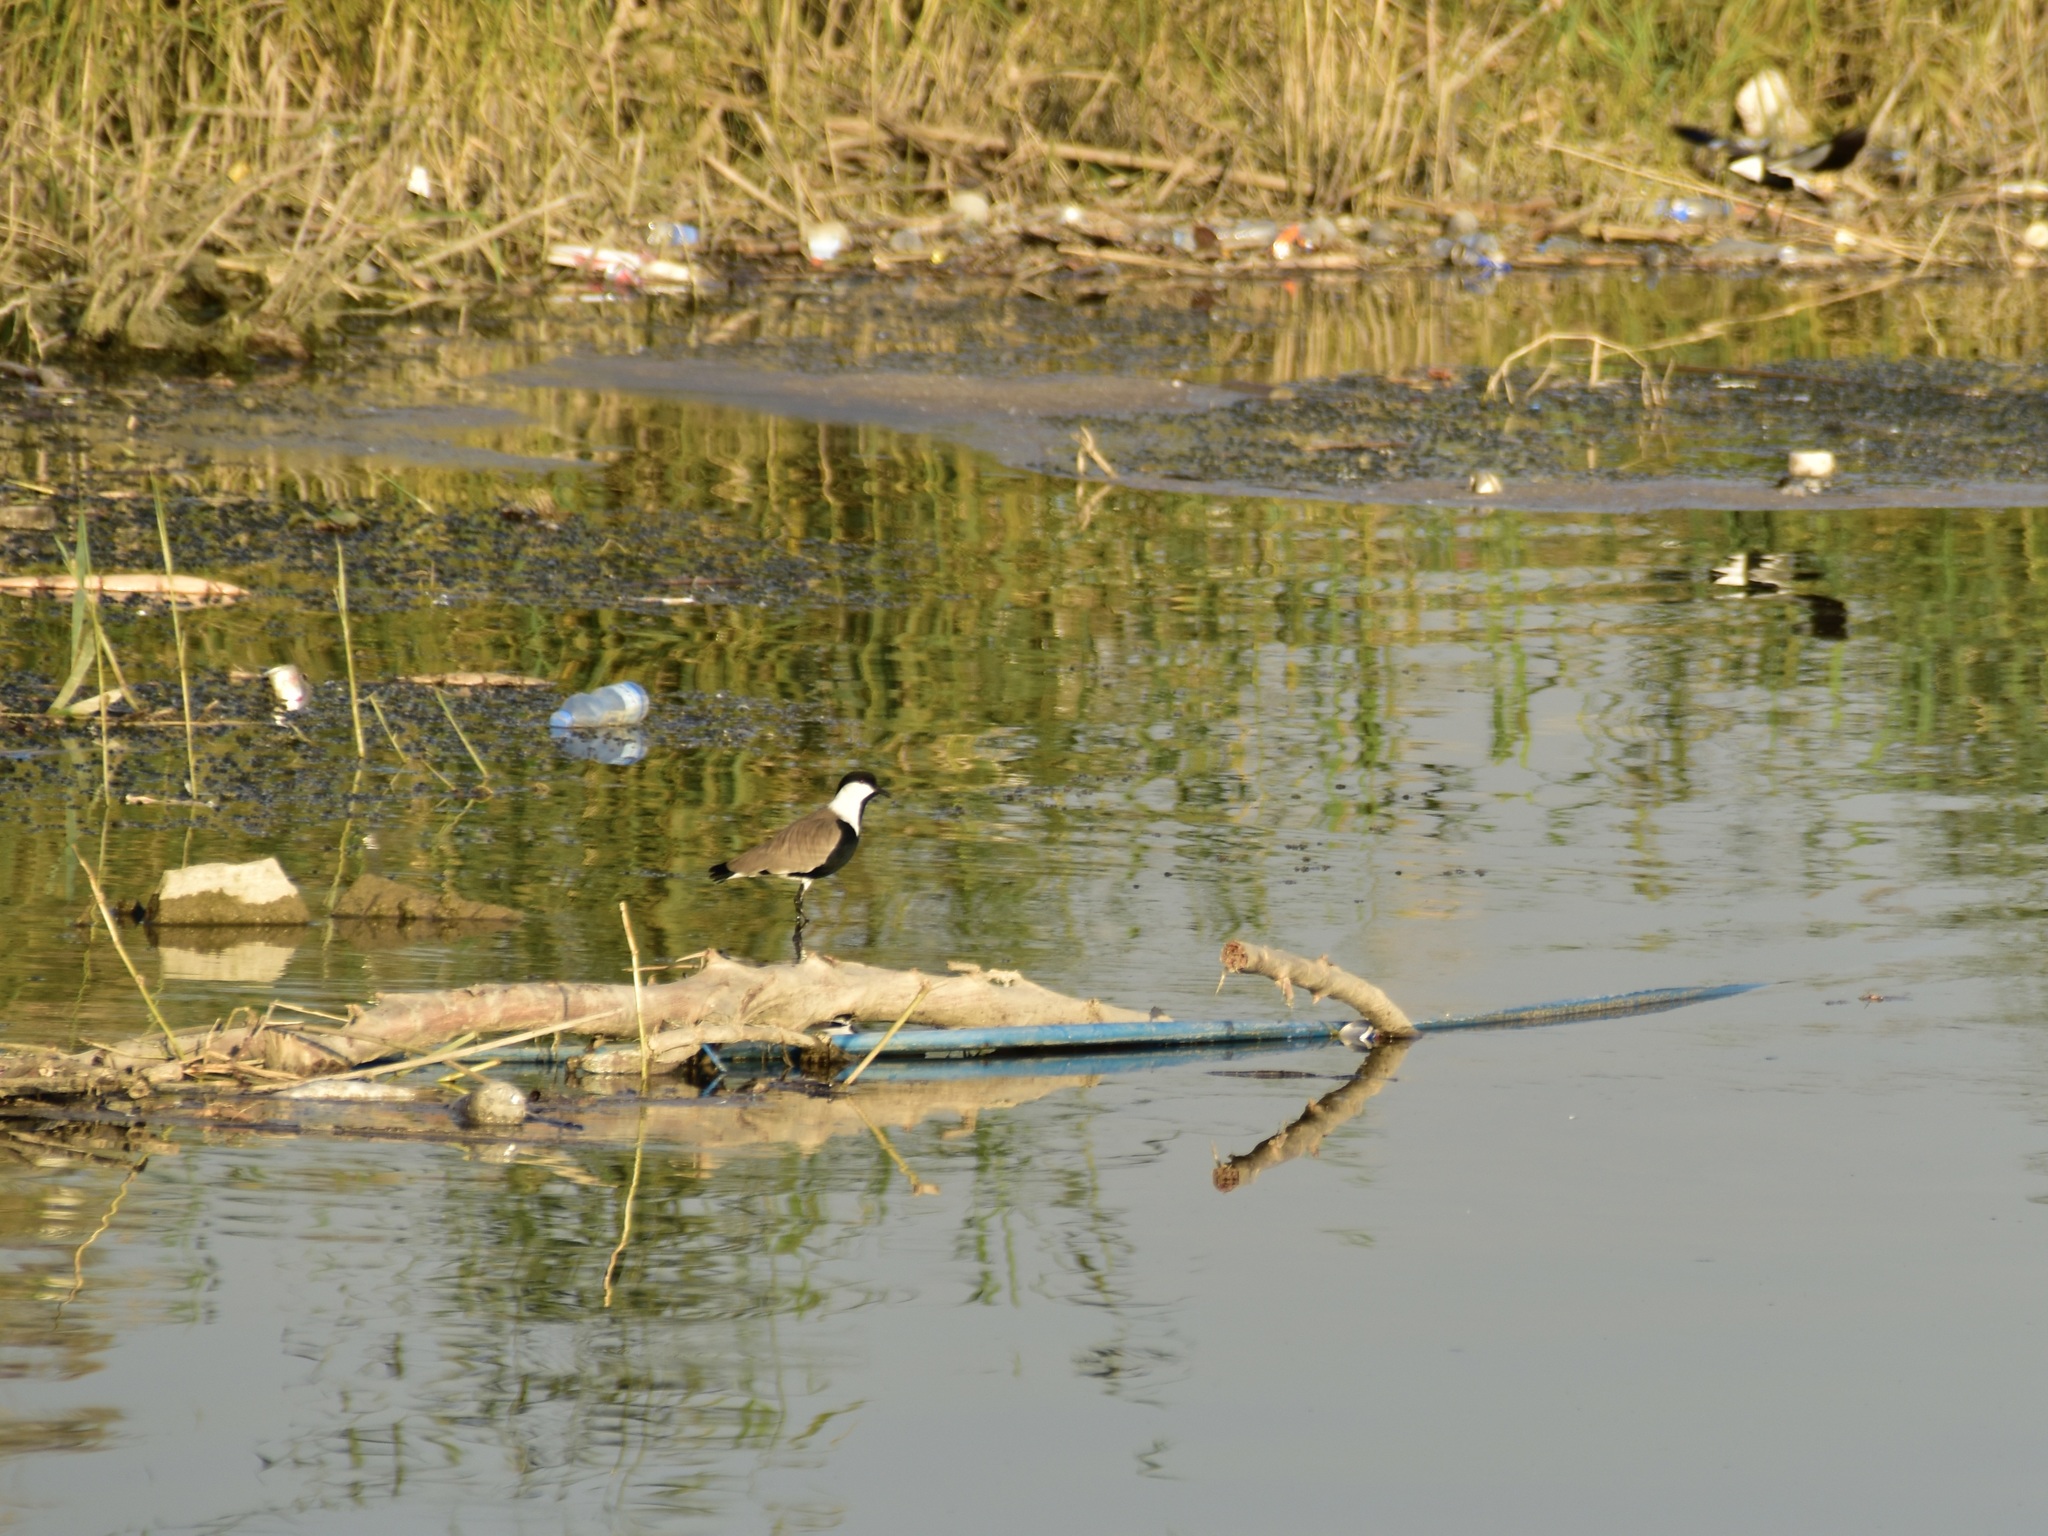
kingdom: Animalia
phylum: Chordata
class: Aves
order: Charadriiformes
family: Charadriidae
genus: Vanellus
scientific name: Vanellus spinosus
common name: Spur-winged lapwing
